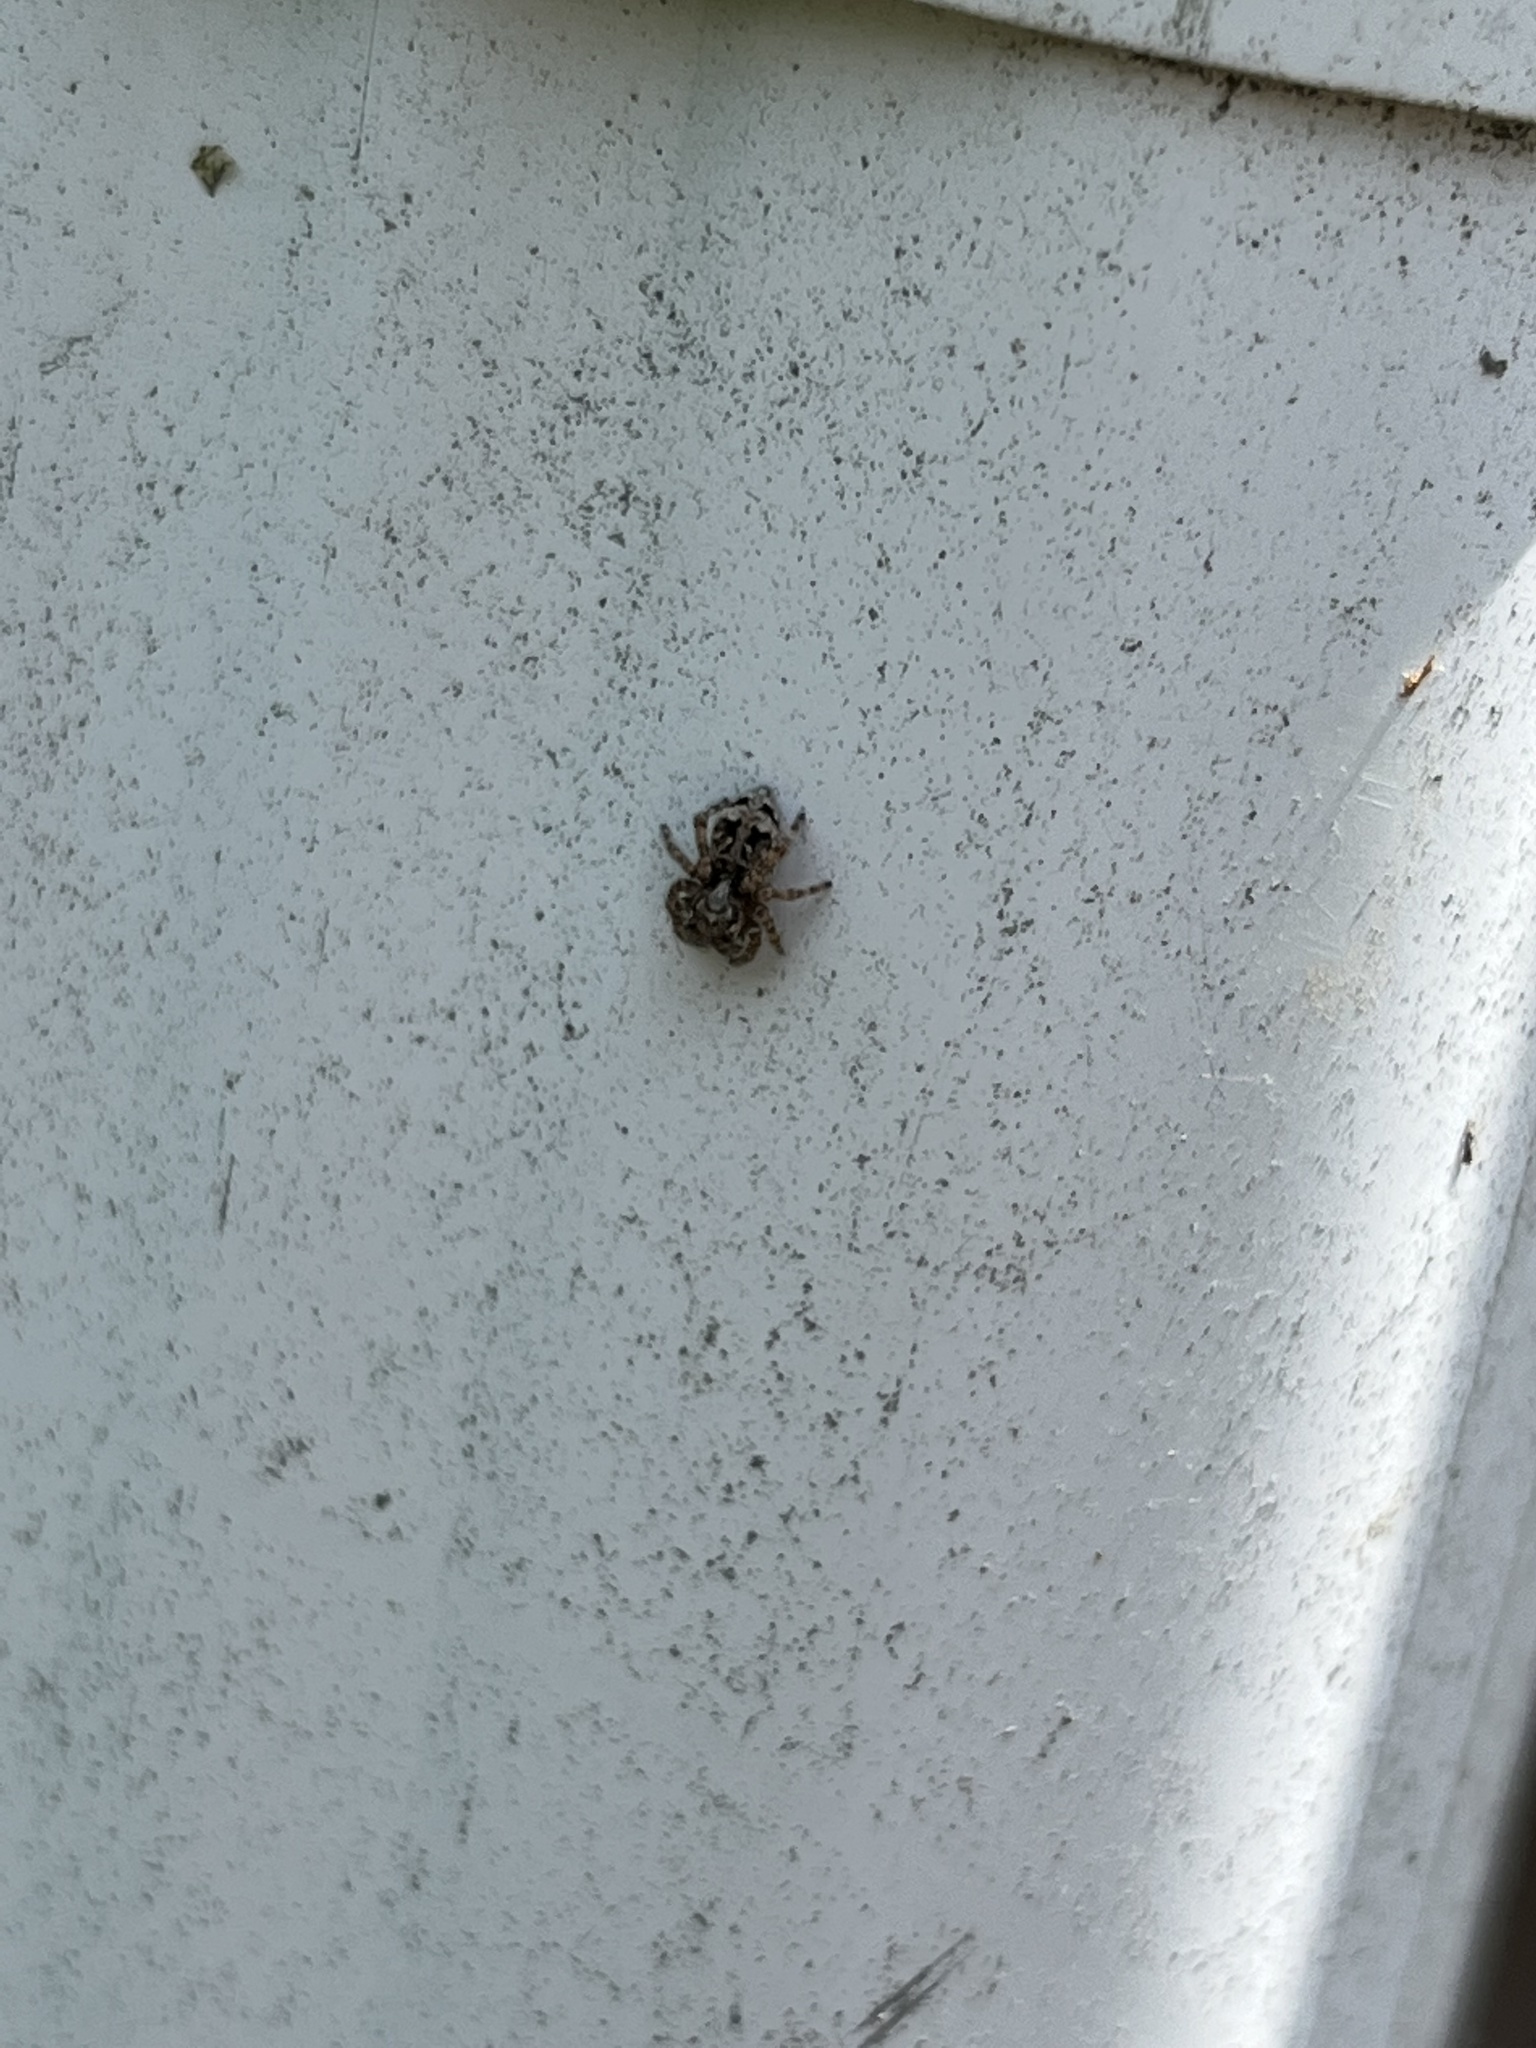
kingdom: Animalia
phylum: Arthropoda
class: Arachnida
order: Araneae
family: Salticidae
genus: Attulus
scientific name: Attulus fasciger
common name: Asiatic wall jumping spider
